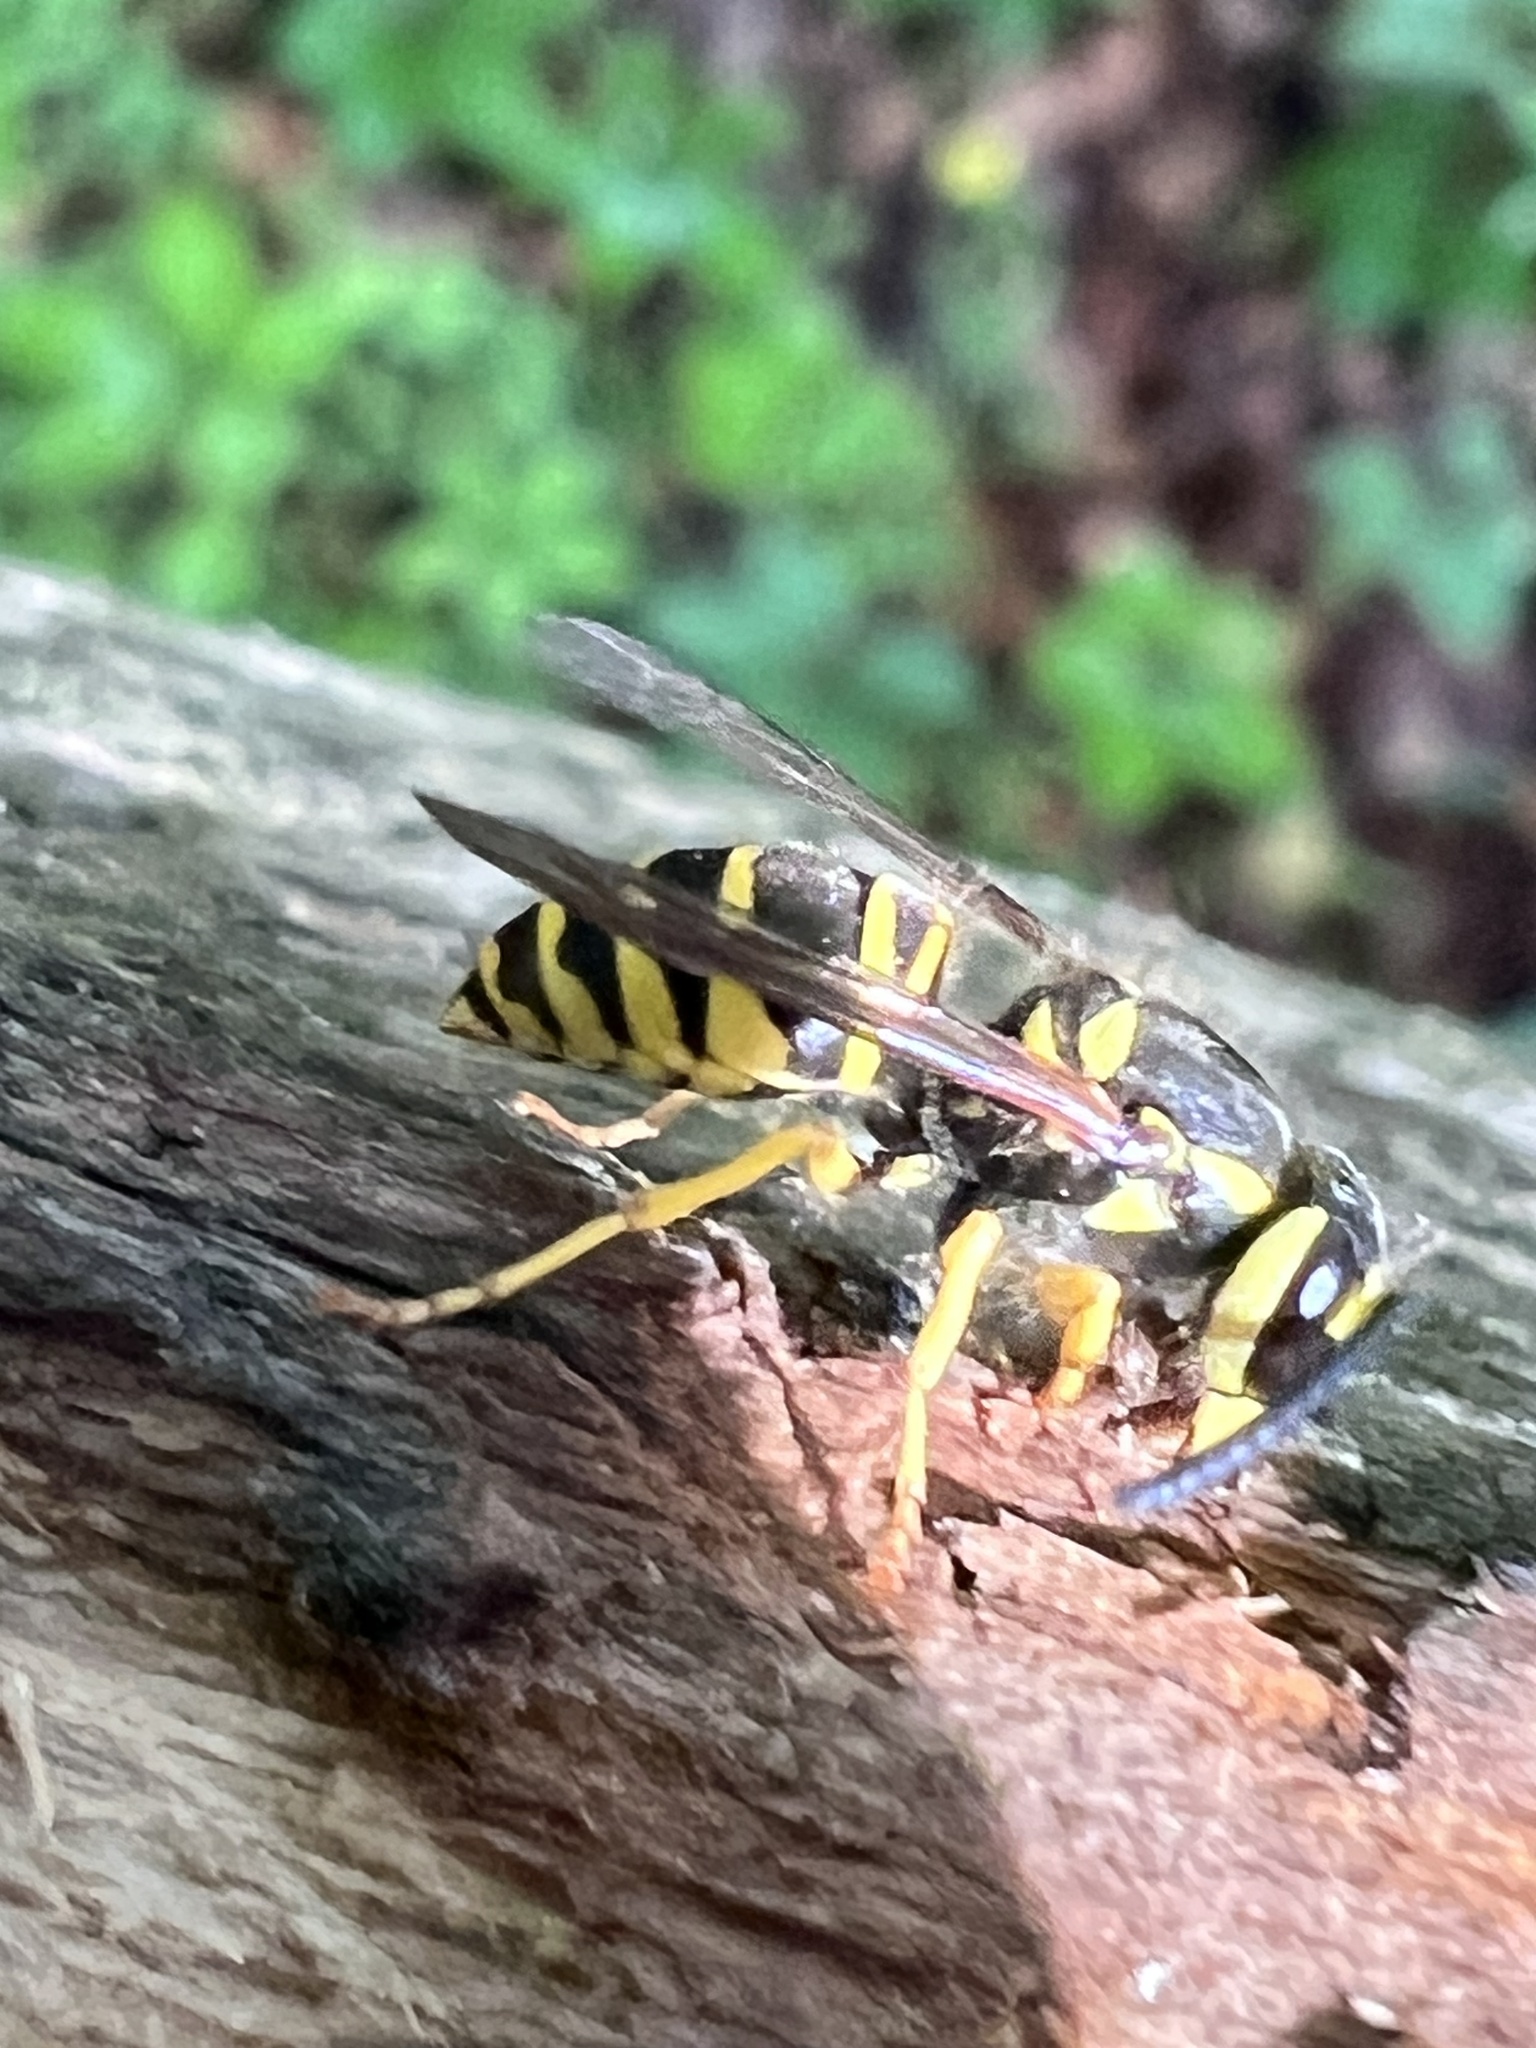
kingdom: Animalia
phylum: Arthropoda
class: Insecta
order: Hymenoptera
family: Vespidae
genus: Vespula
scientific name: Vespula maculifrons
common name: Eastern yellowjacket
